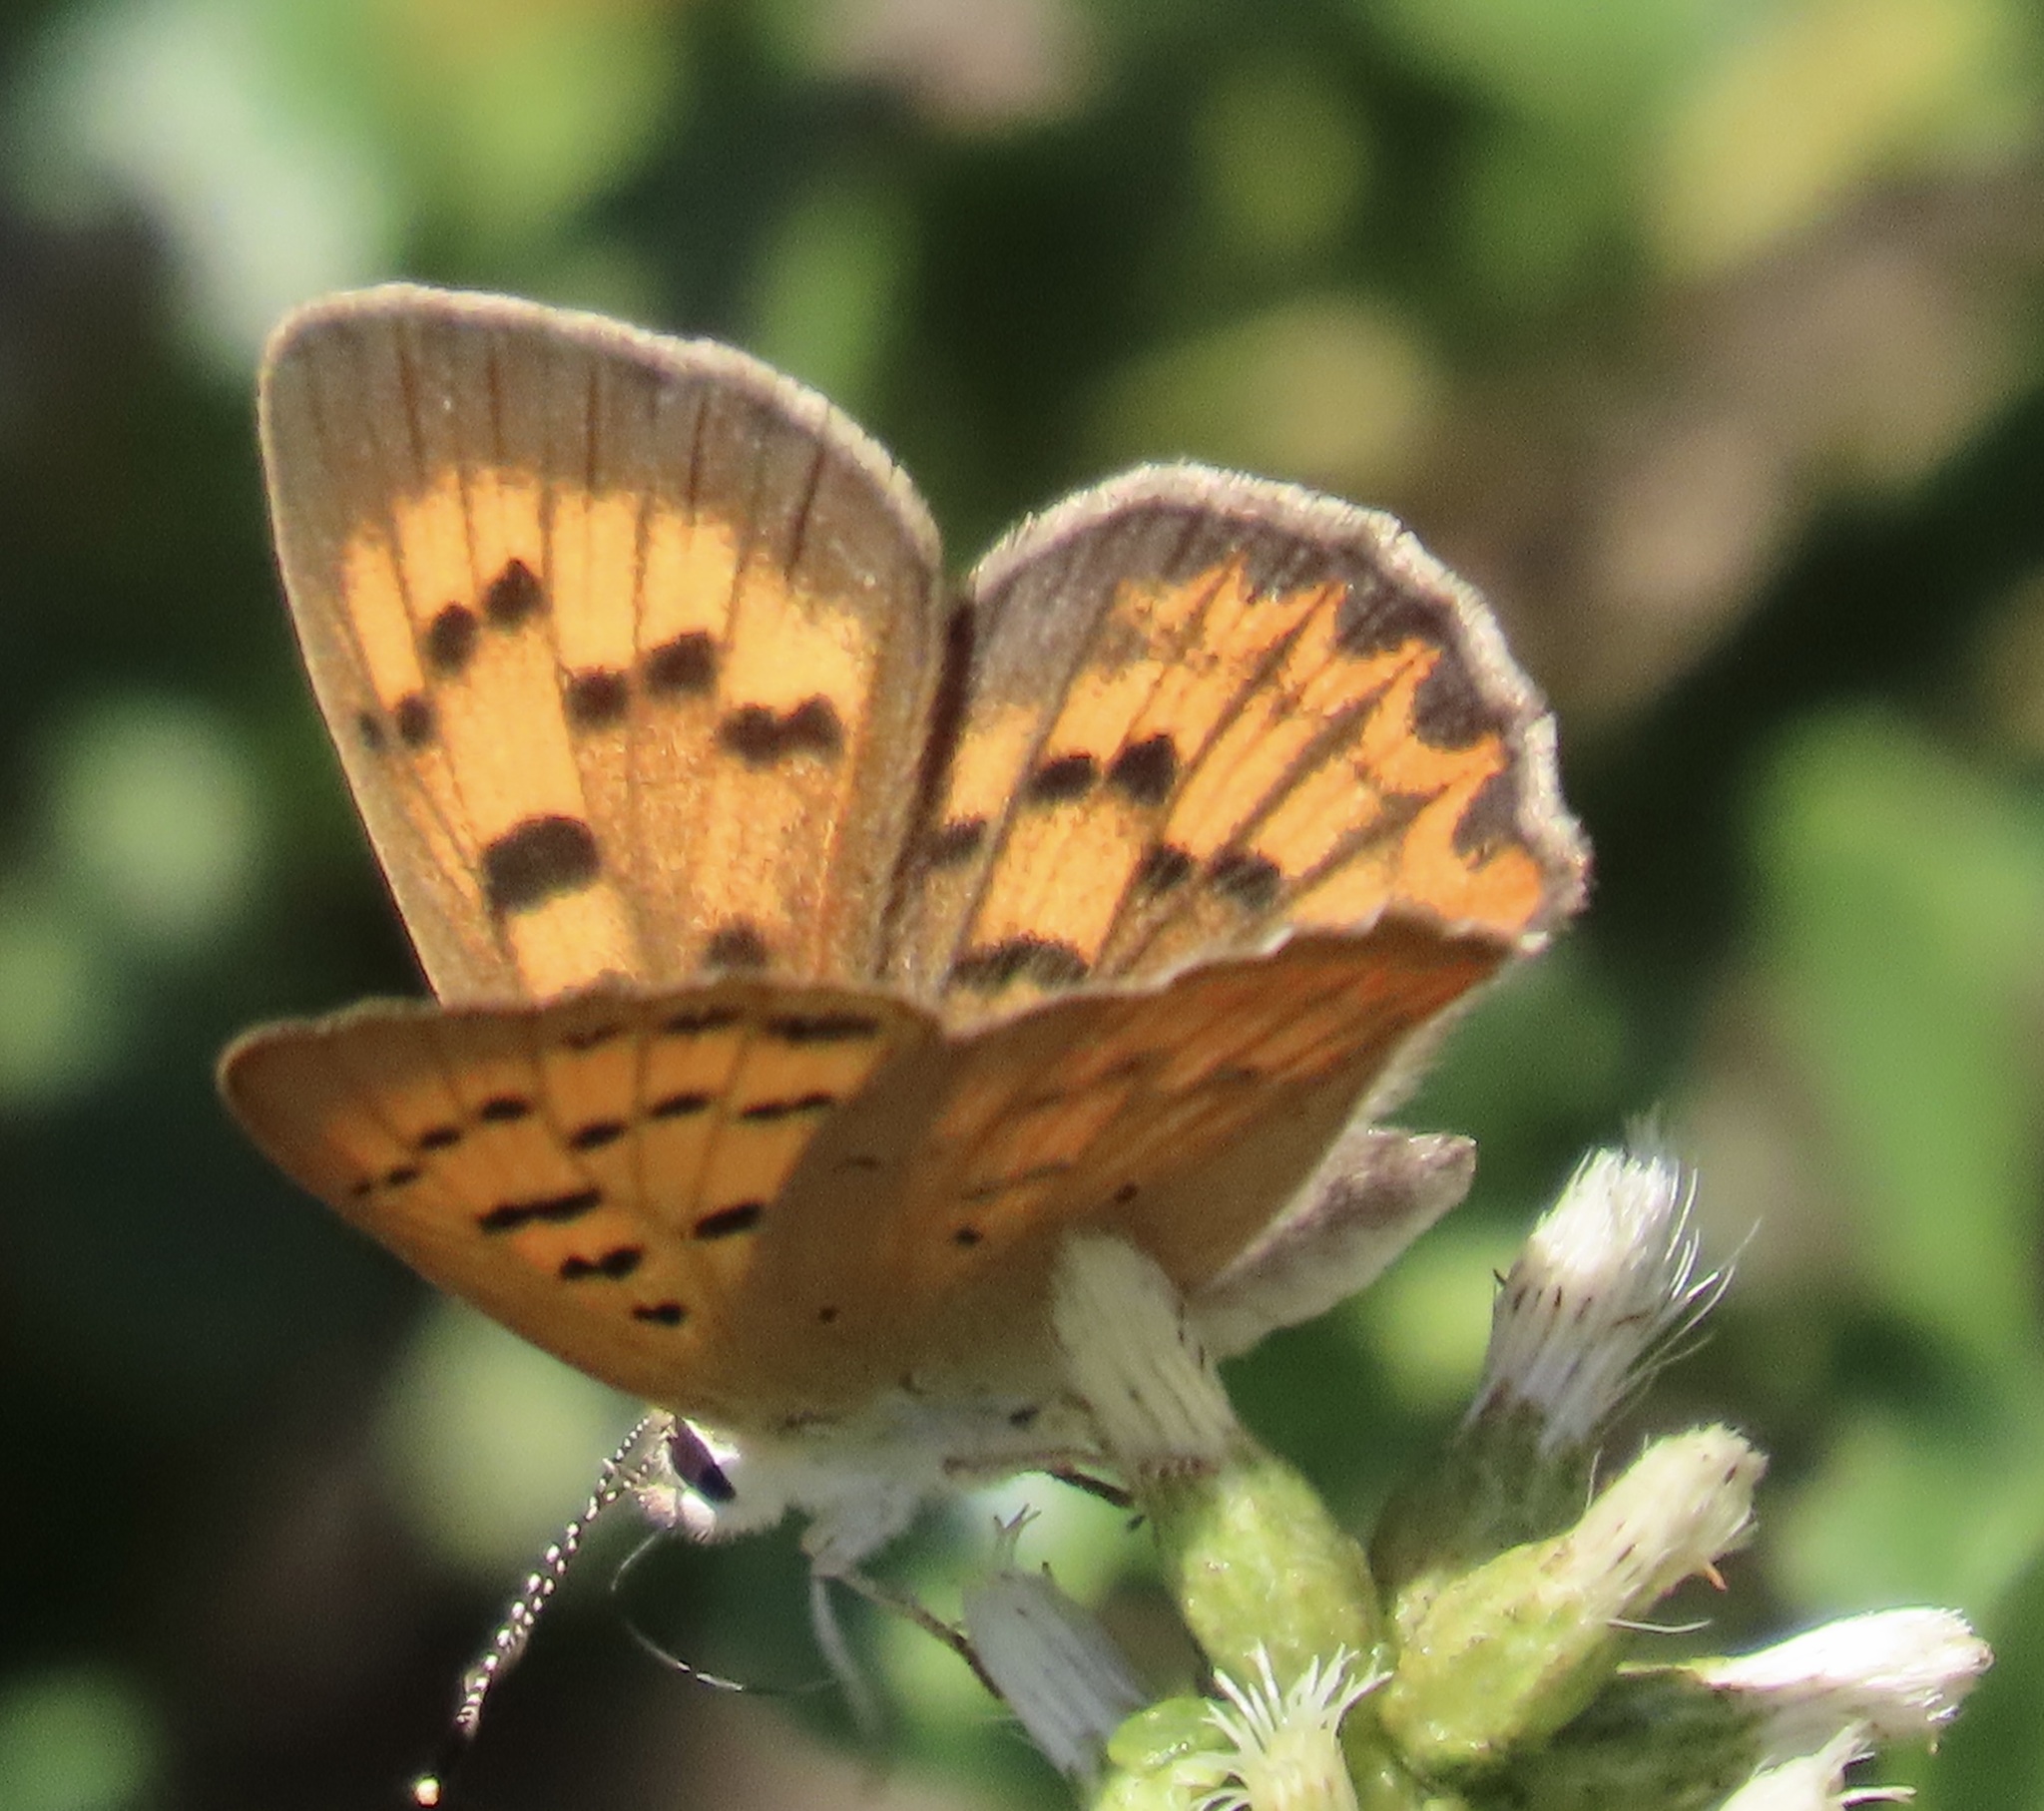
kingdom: Animalia
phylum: Arthropoda
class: Insecta
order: Lepidoptera
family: Lycaenidae
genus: Tharsalea
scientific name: Tharsalea helloides
